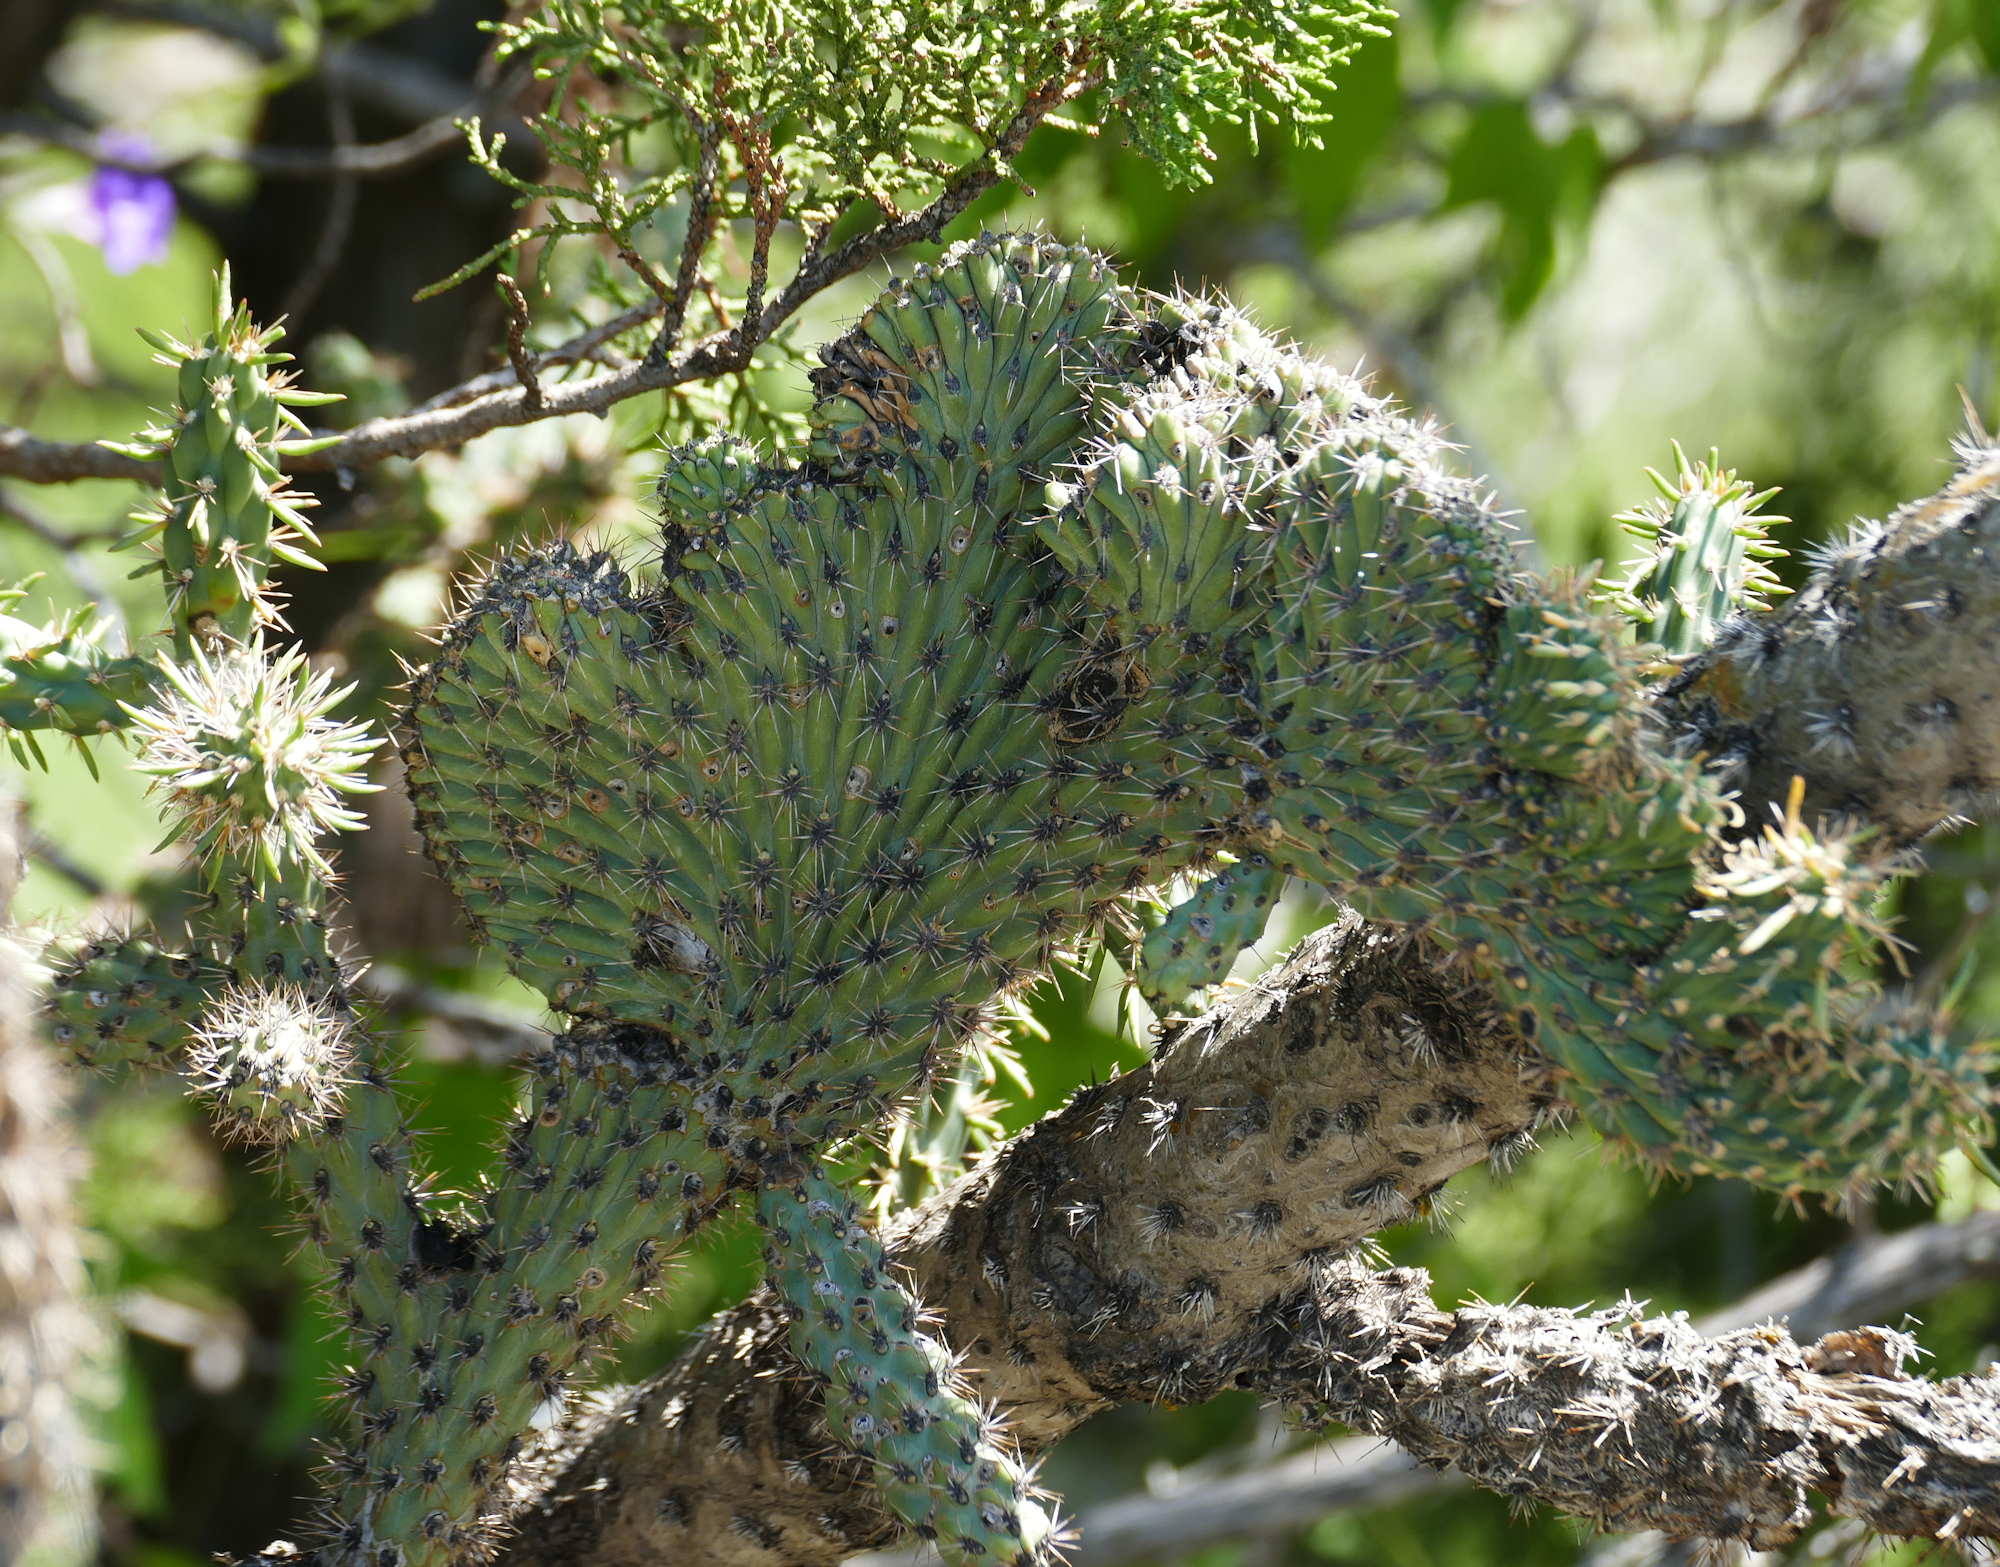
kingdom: Plantae
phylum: Tracheophyta
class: Magnoliopsida
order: Caryophyllales
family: Cactaceae
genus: Cylindropuntia
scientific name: Cylindropuntia imbricata
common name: Candelabrum cactus
